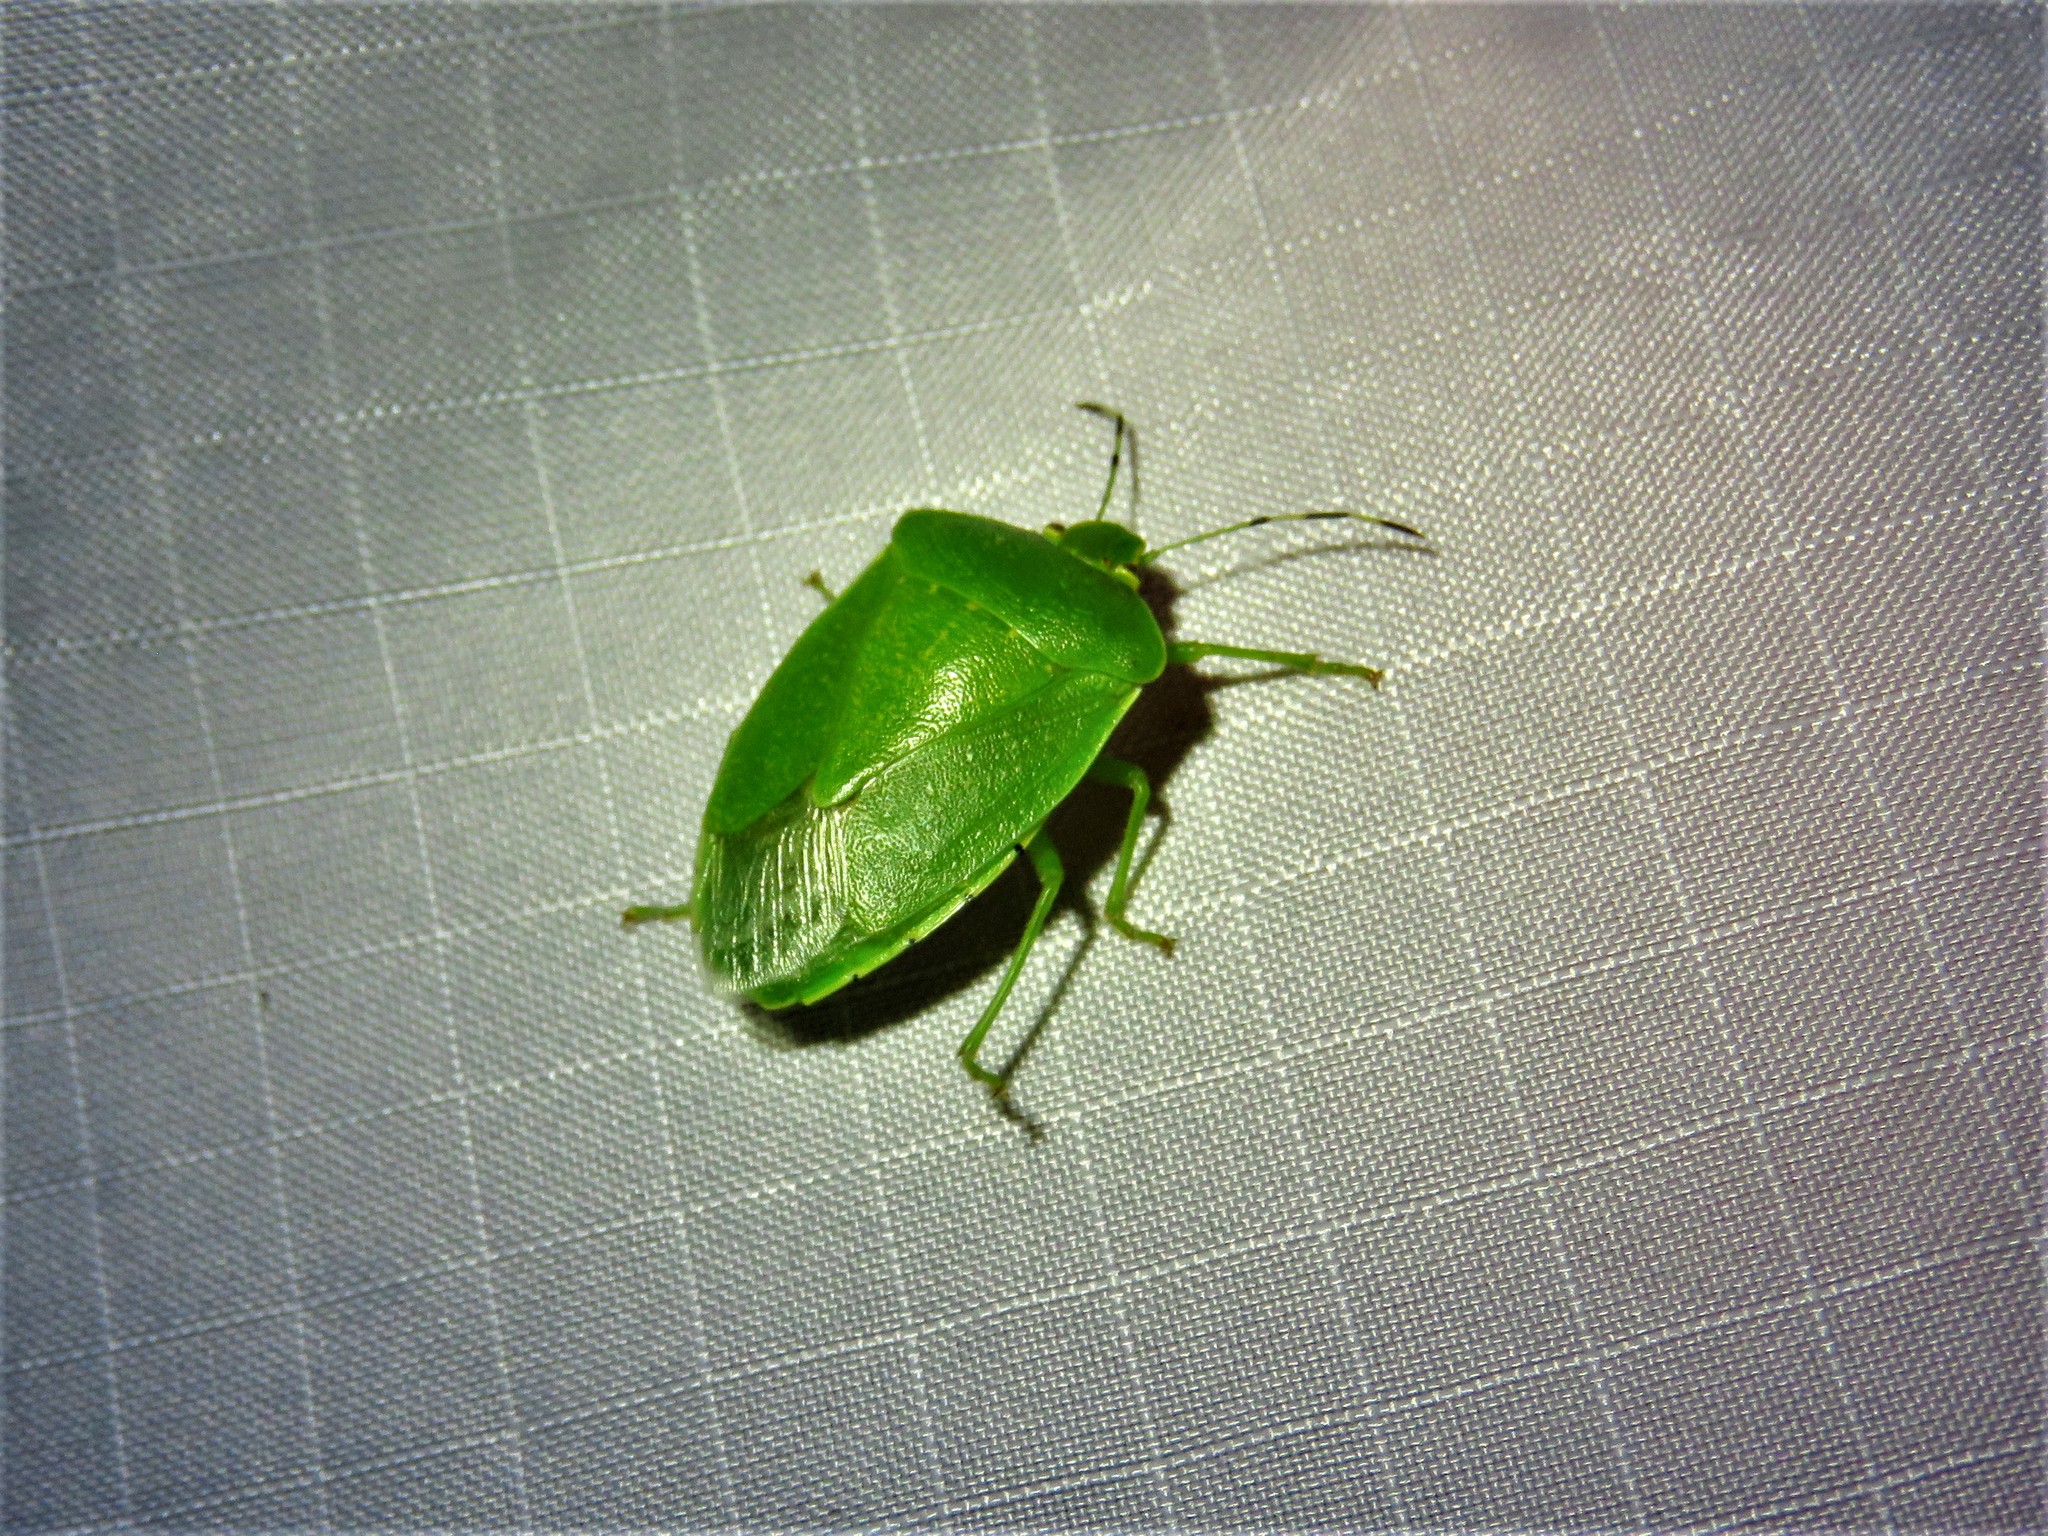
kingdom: Animalia
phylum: Arthropoda
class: Insecta
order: Hemiptera
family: Pentatomidae
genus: Chinavia
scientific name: Chinavia hilaris
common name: Green stink bug
